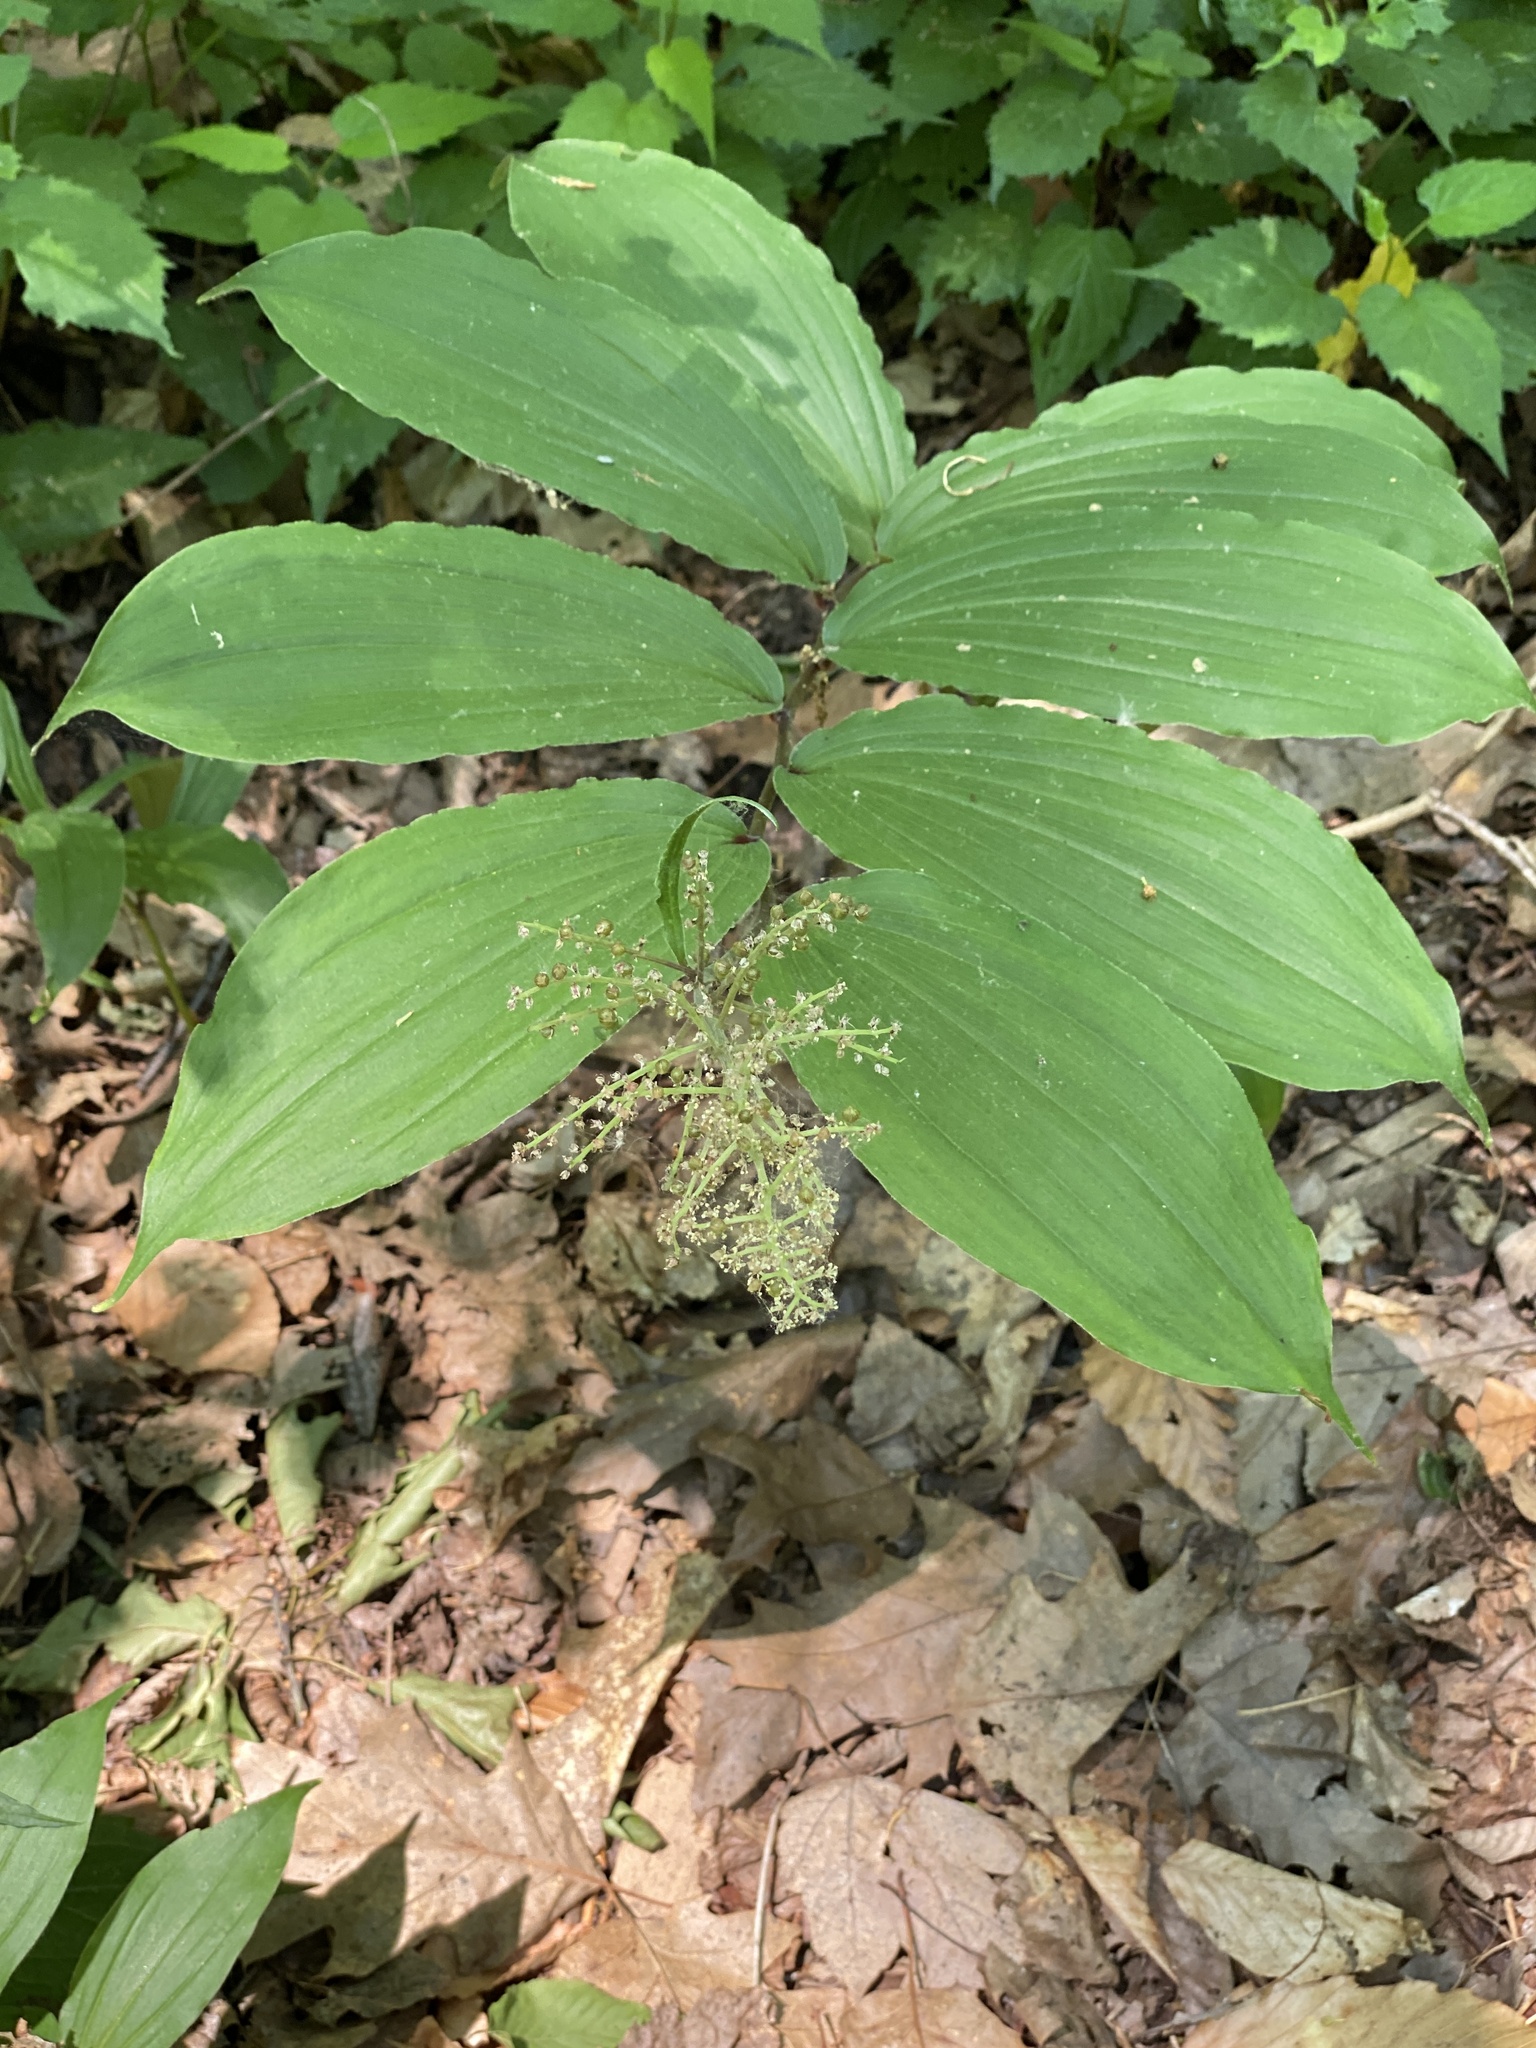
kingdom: Plantae
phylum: Tracheophyta
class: Liliopsida
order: Asparagales
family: Asparagaceae
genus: Maianthemum
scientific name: Maianthemum racemosum
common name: False spikenard
